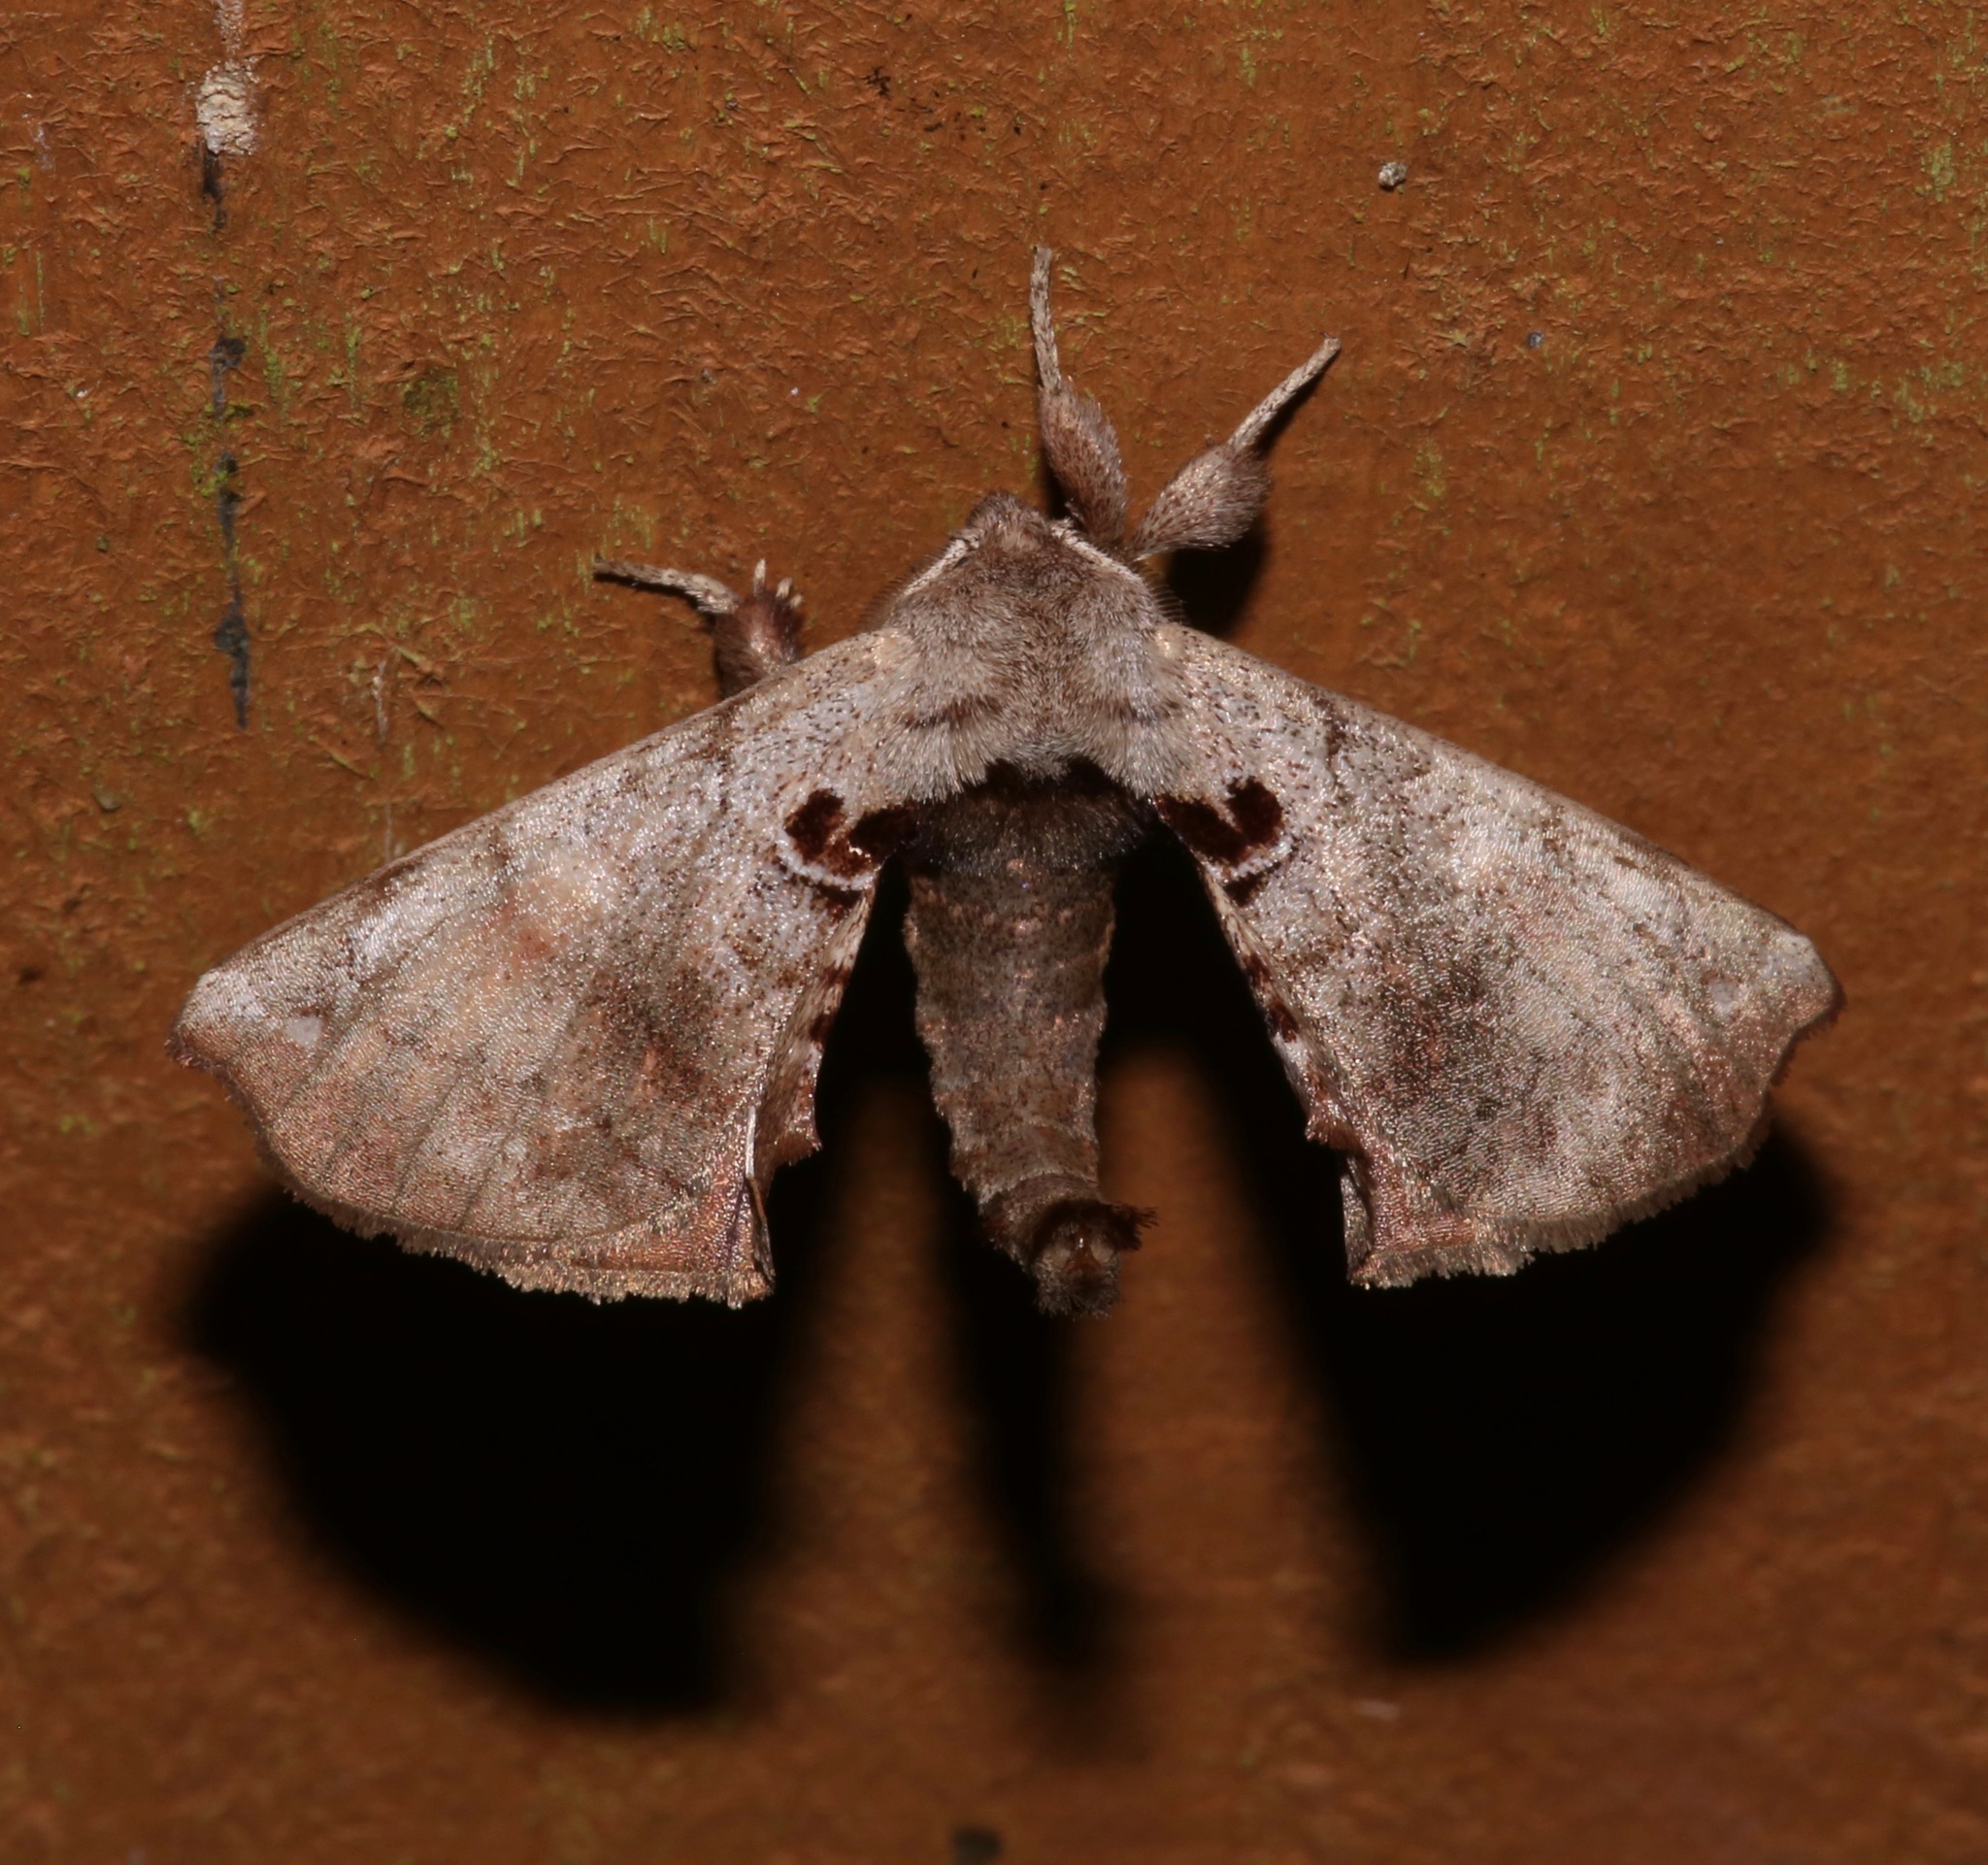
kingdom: Animalia
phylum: Arthropoda
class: Insecta
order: Lepidoptera
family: Apatelodidae
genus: Hygrochroa
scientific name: Hygrochroa Apatelodes torrefacta
